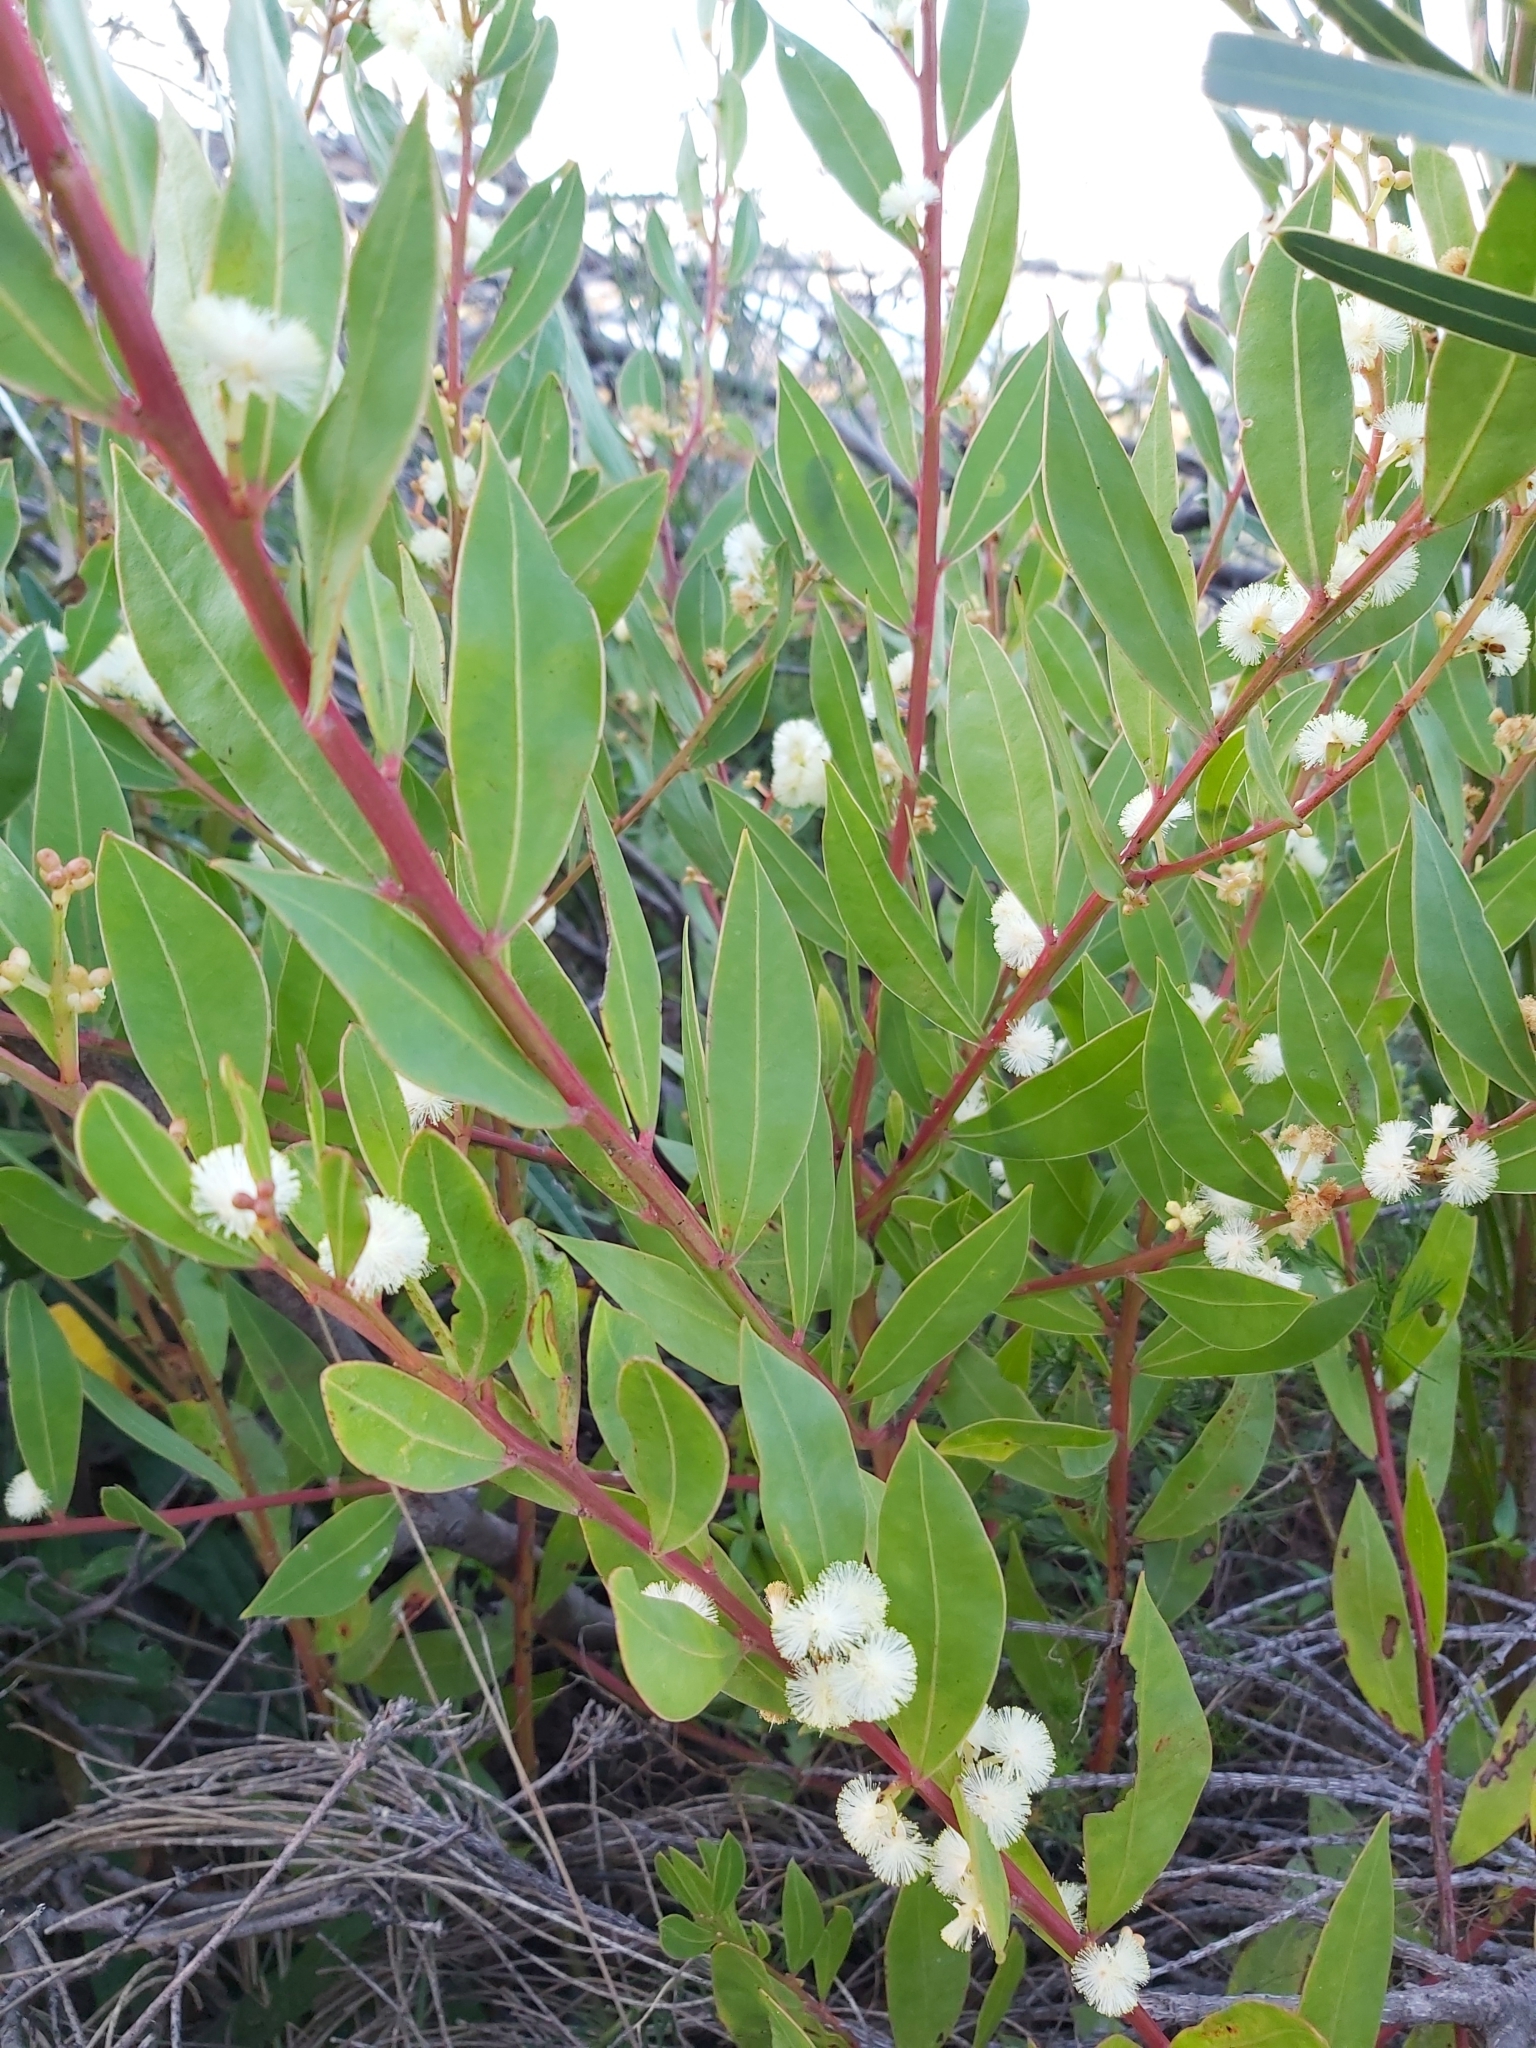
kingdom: Plantae
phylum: Tracheophyta
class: Magnoliopsida
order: Fabales
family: Fabaceae
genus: Acacia
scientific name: Acacia myrtifolia
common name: Myrtle wattle
